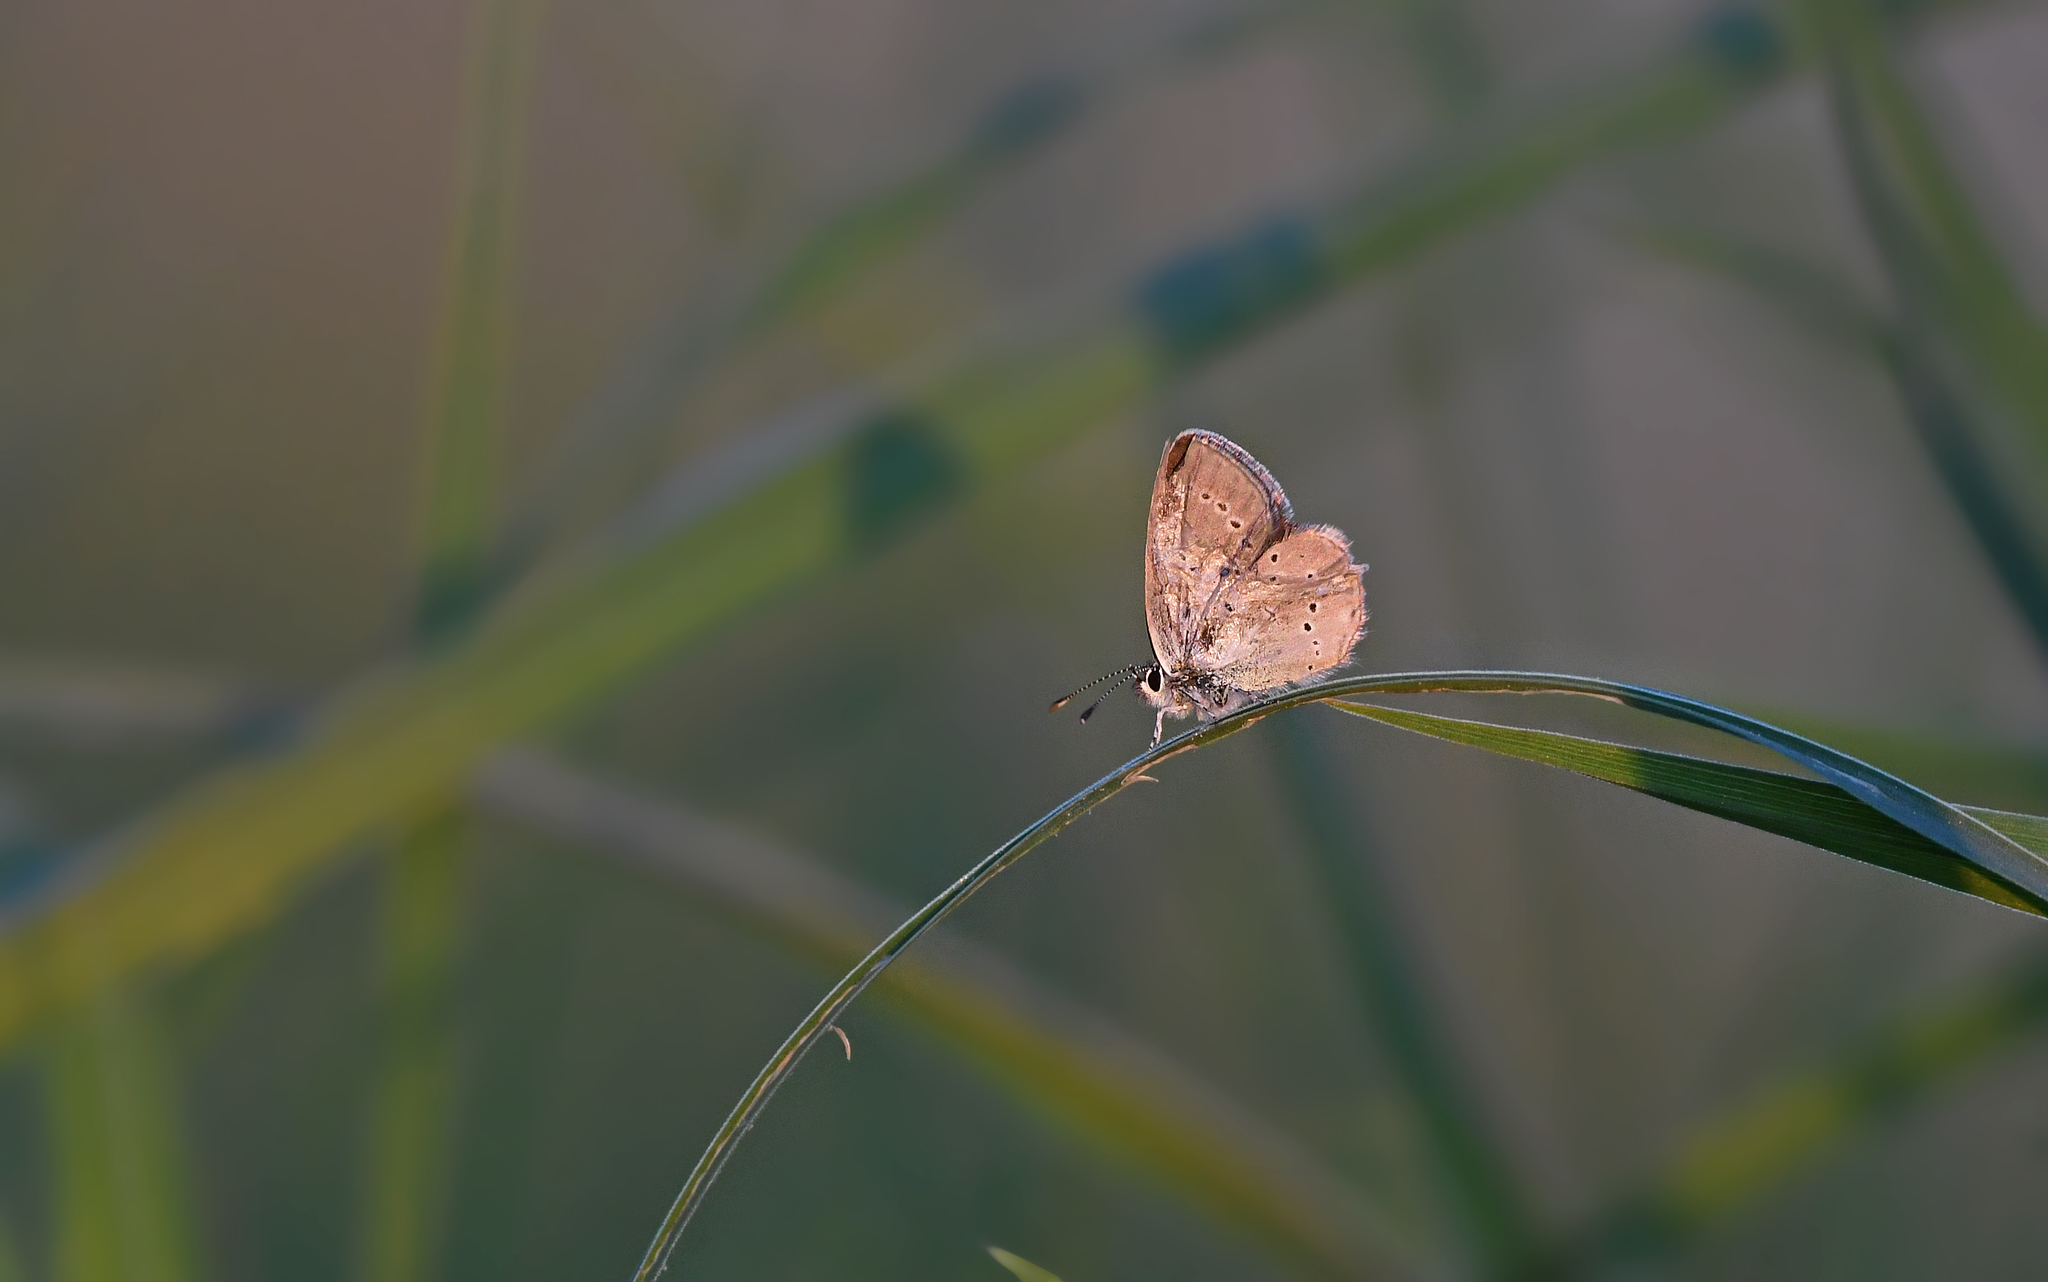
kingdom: Animalia
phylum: Arthropoda
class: Insecta
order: Lepidoptera
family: Lycaenidae
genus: Cupido
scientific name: Cupido minimus
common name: Small blue
